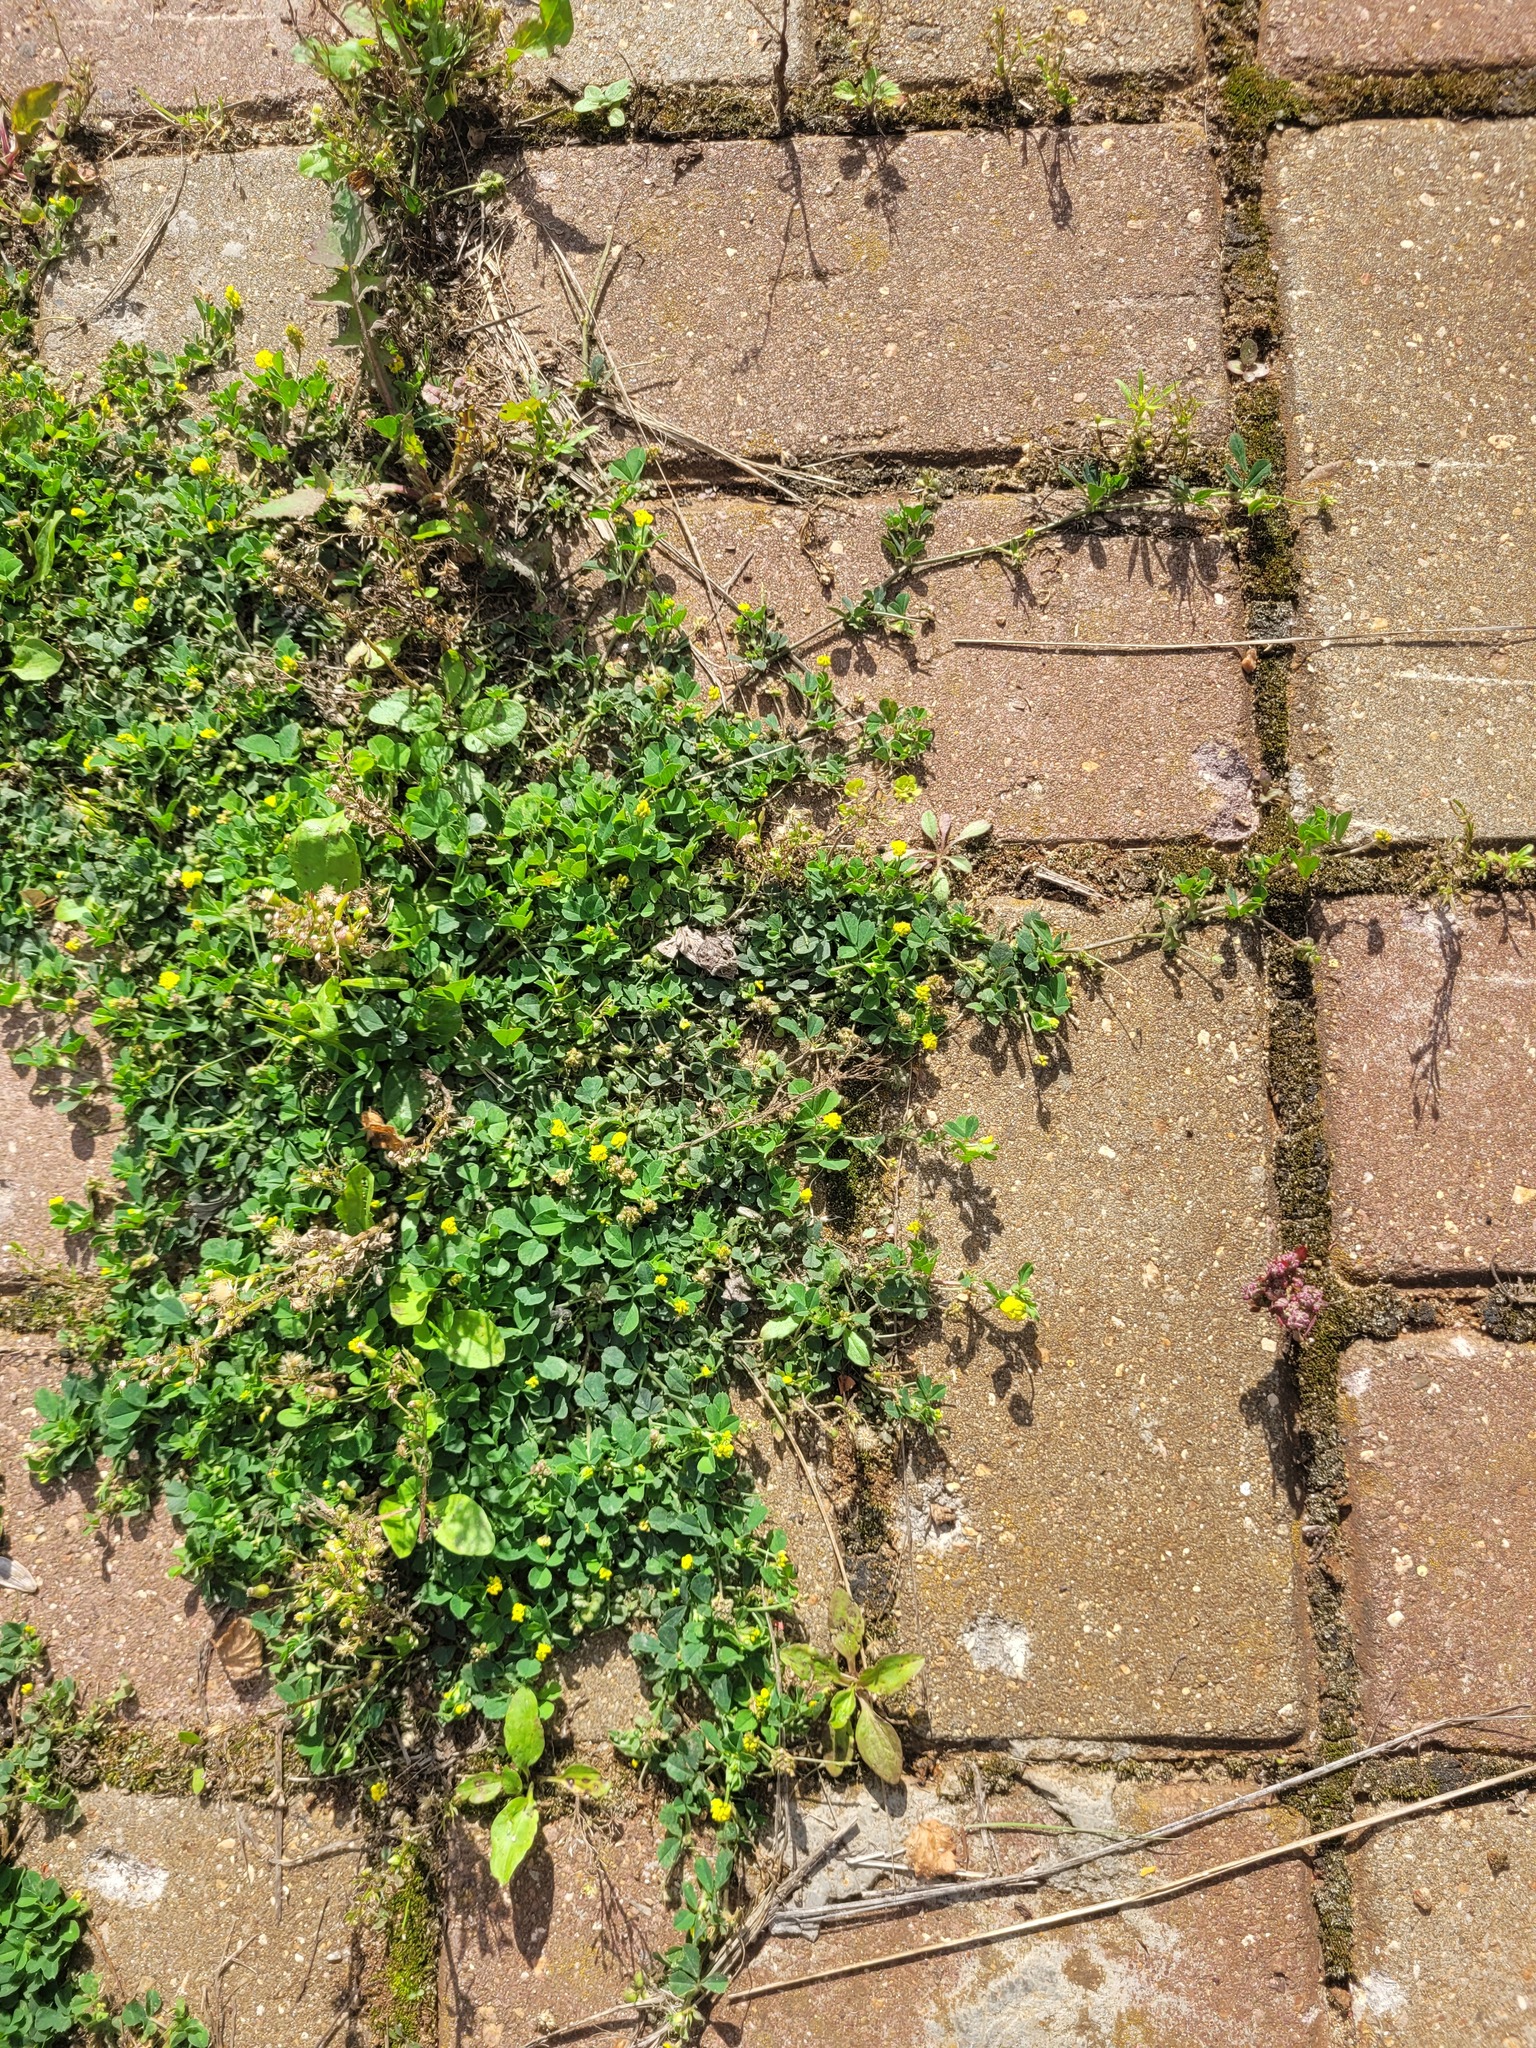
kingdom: Plantae
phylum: Tracheophyta
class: Magnoliopsida
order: Fabales
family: Fabaceae
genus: Medicago
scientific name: Medicago lupulina
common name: Black medick
